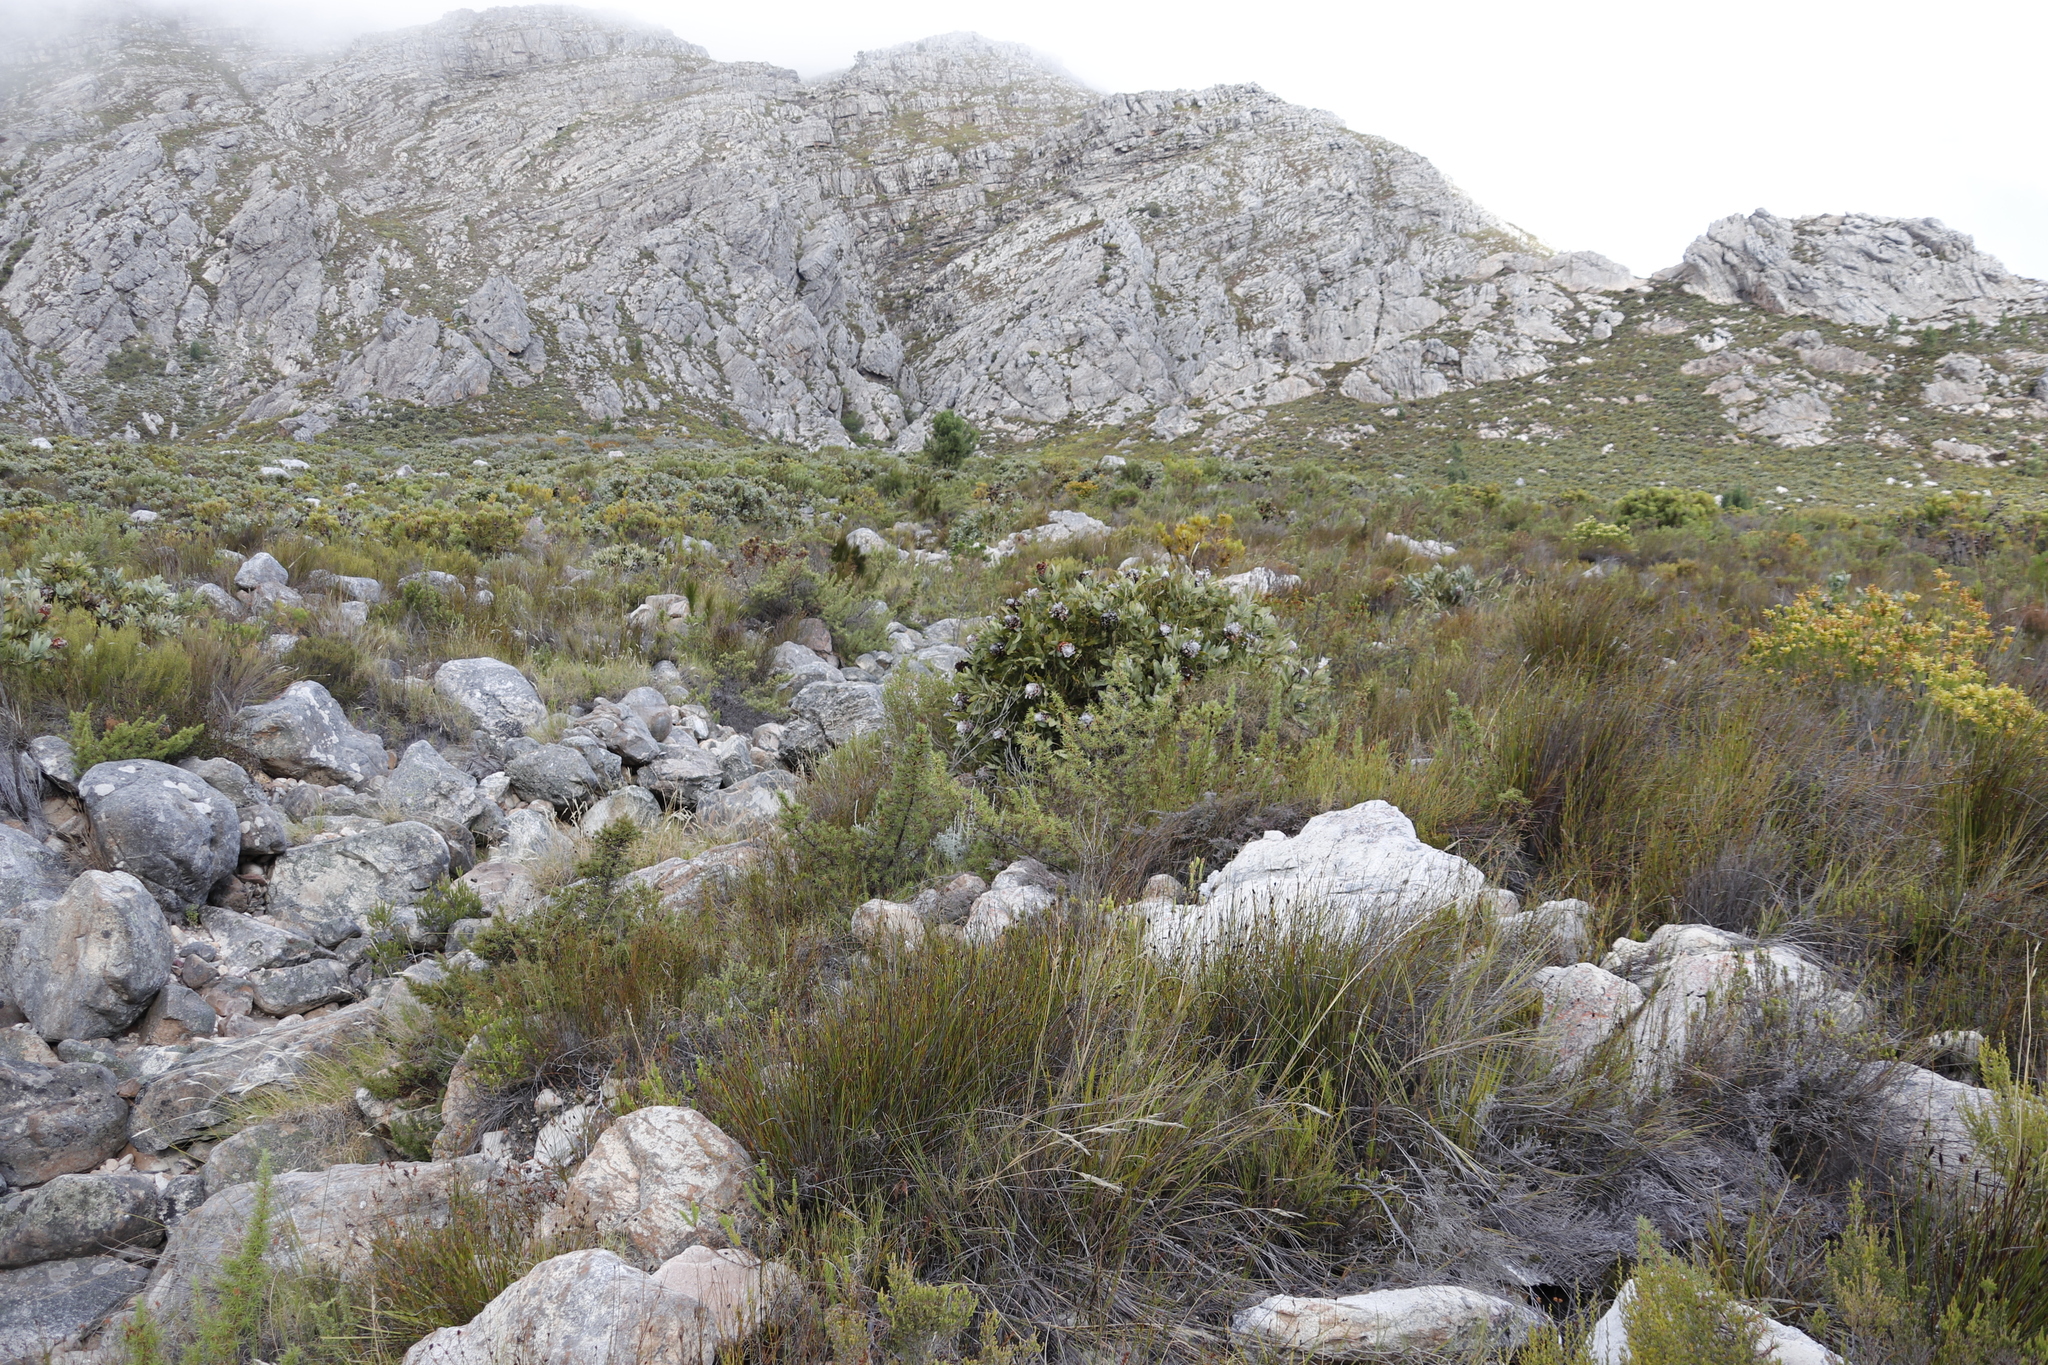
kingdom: Plantae
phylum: Tracheophyta
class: Magnoliopsida
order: Proteales
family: Proteaceae
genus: Protea
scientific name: Protea magnifica
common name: Bearded sugarbush
